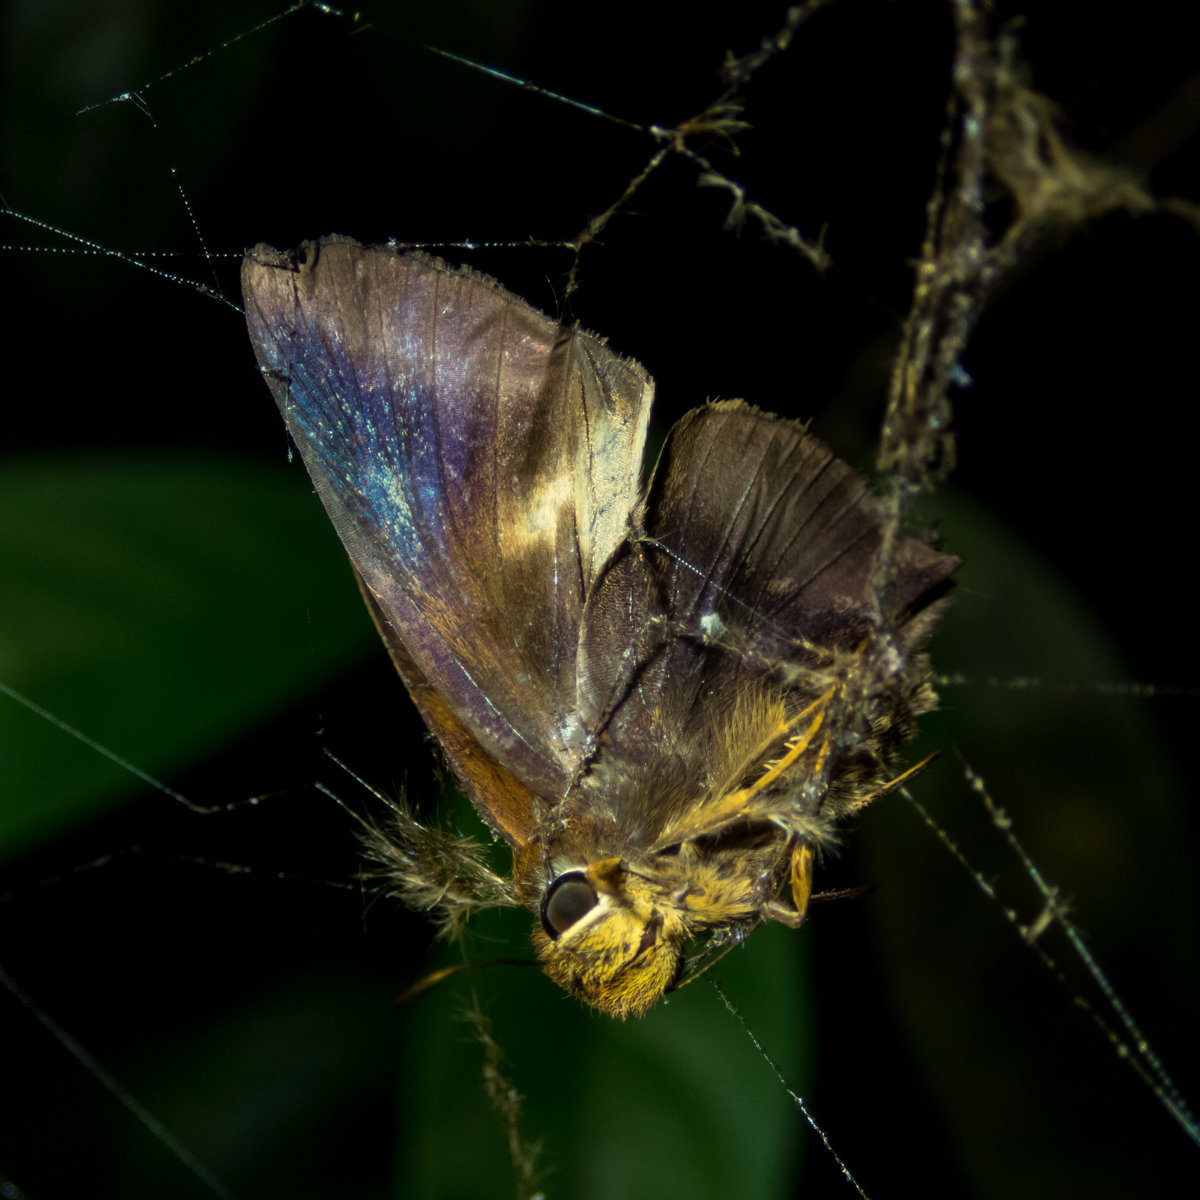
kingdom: Animalia
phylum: Arthropoda
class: Insecta
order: Lepidoptera
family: Hesperiidae
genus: Hasora
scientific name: Hasora badra
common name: Common awl
